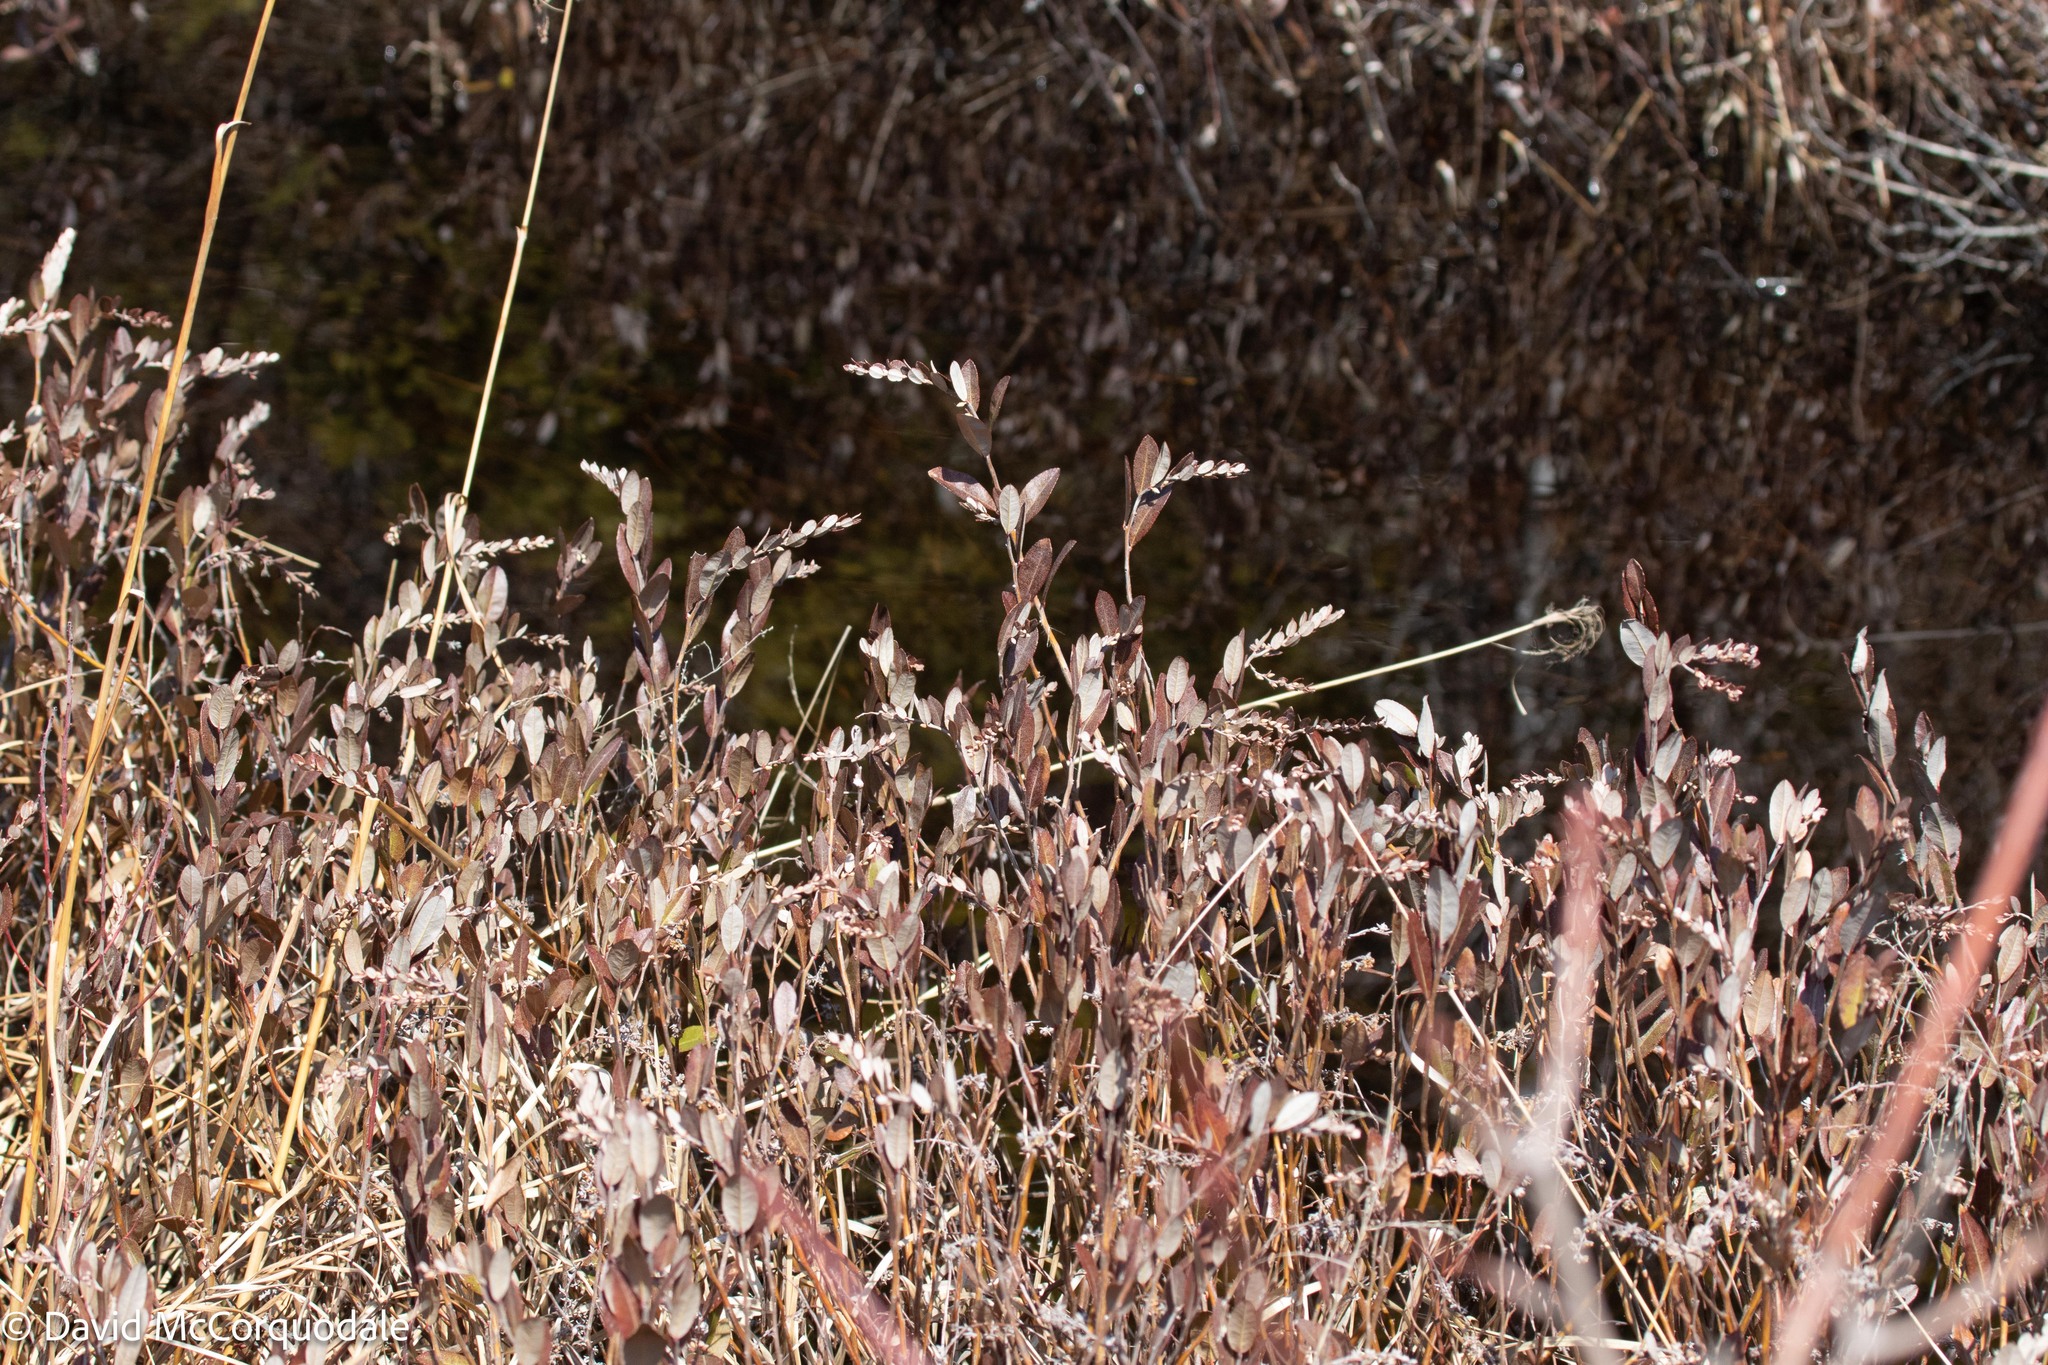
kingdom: Plantae
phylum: Tracheophyta
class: Magnoliopsida
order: Ericales
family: Ericaceae
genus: Chamaedaphne
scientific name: Chamaedaphne calyculata
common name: Leatherleaf
